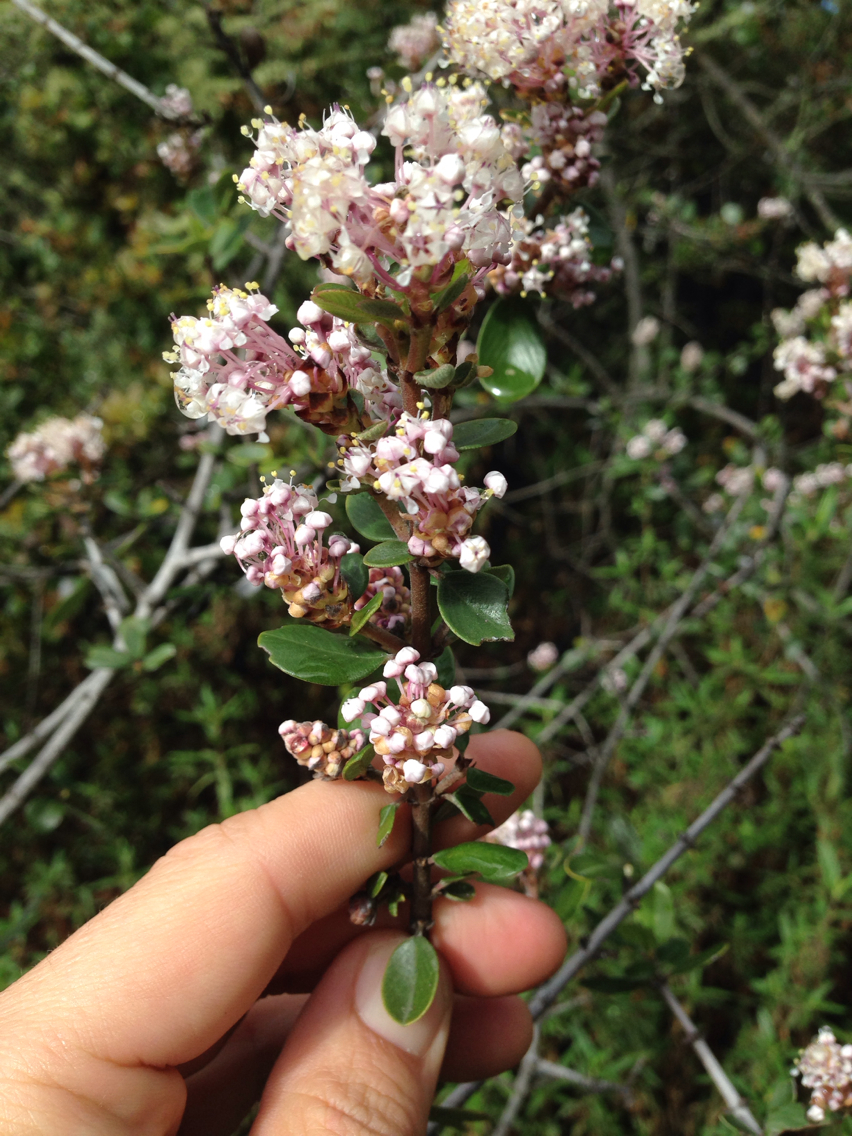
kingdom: Plantae
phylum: Tracheophyta
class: Magnoliopsida
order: Rosales
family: Rhamnaceae
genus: Ceanothus
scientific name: Ceanothus cuneatus
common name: Cuneate ceanothus
